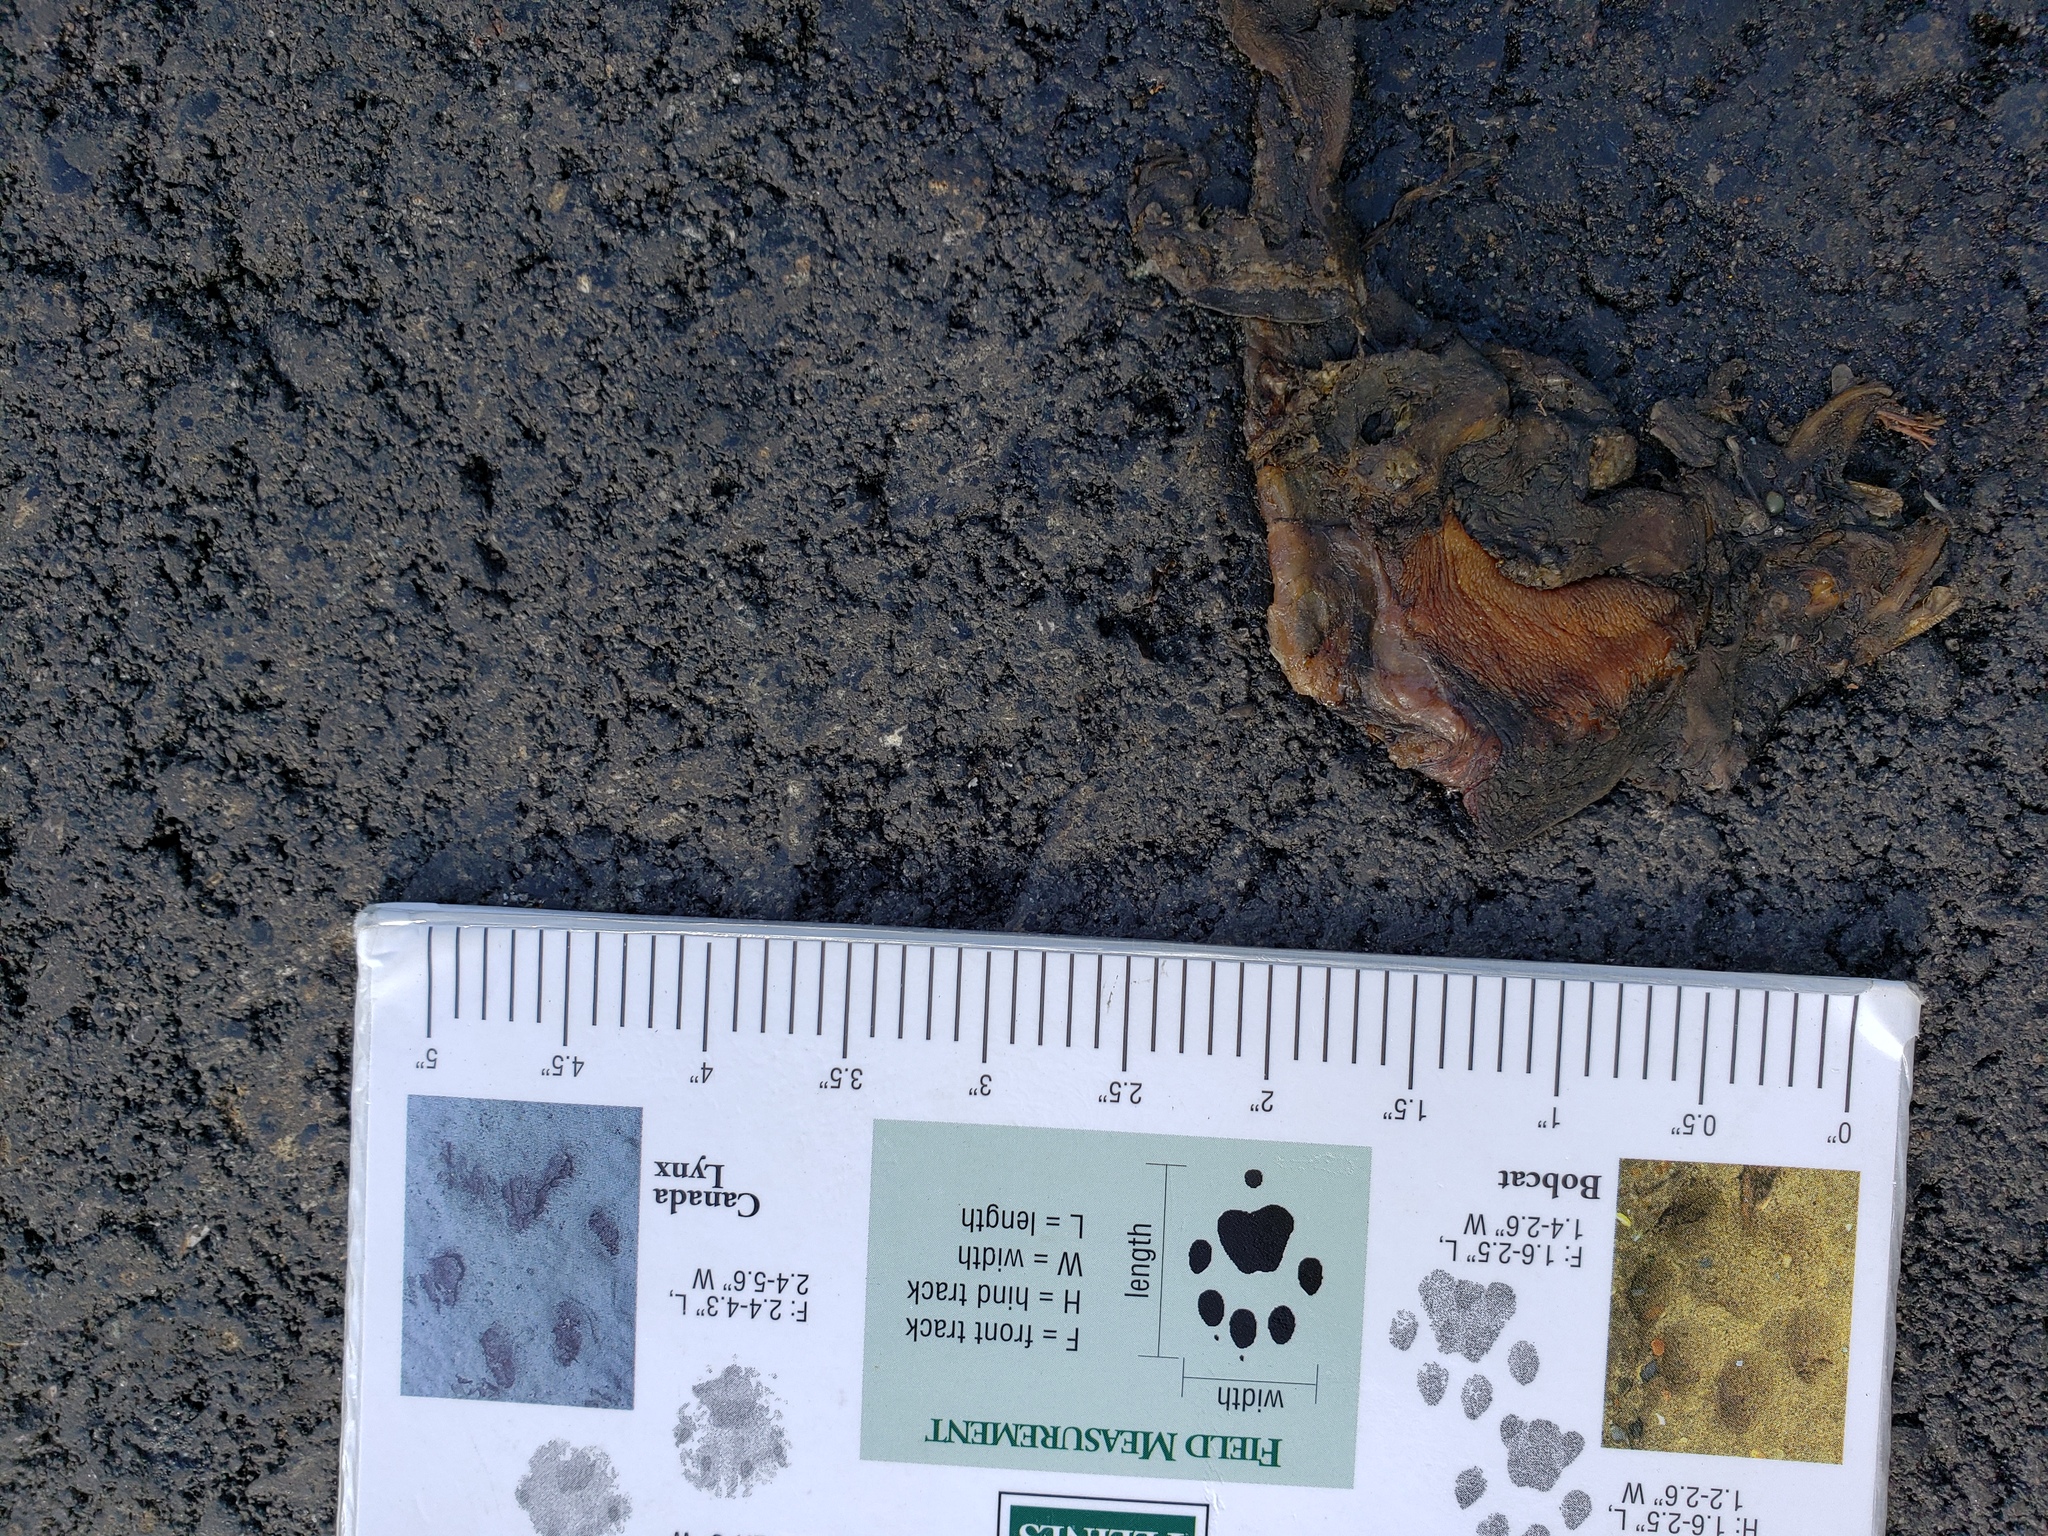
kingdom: Animalia
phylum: Chordata
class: Amphibia
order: Caudata
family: Salamandridae
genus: Taricha
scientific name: Taricha
